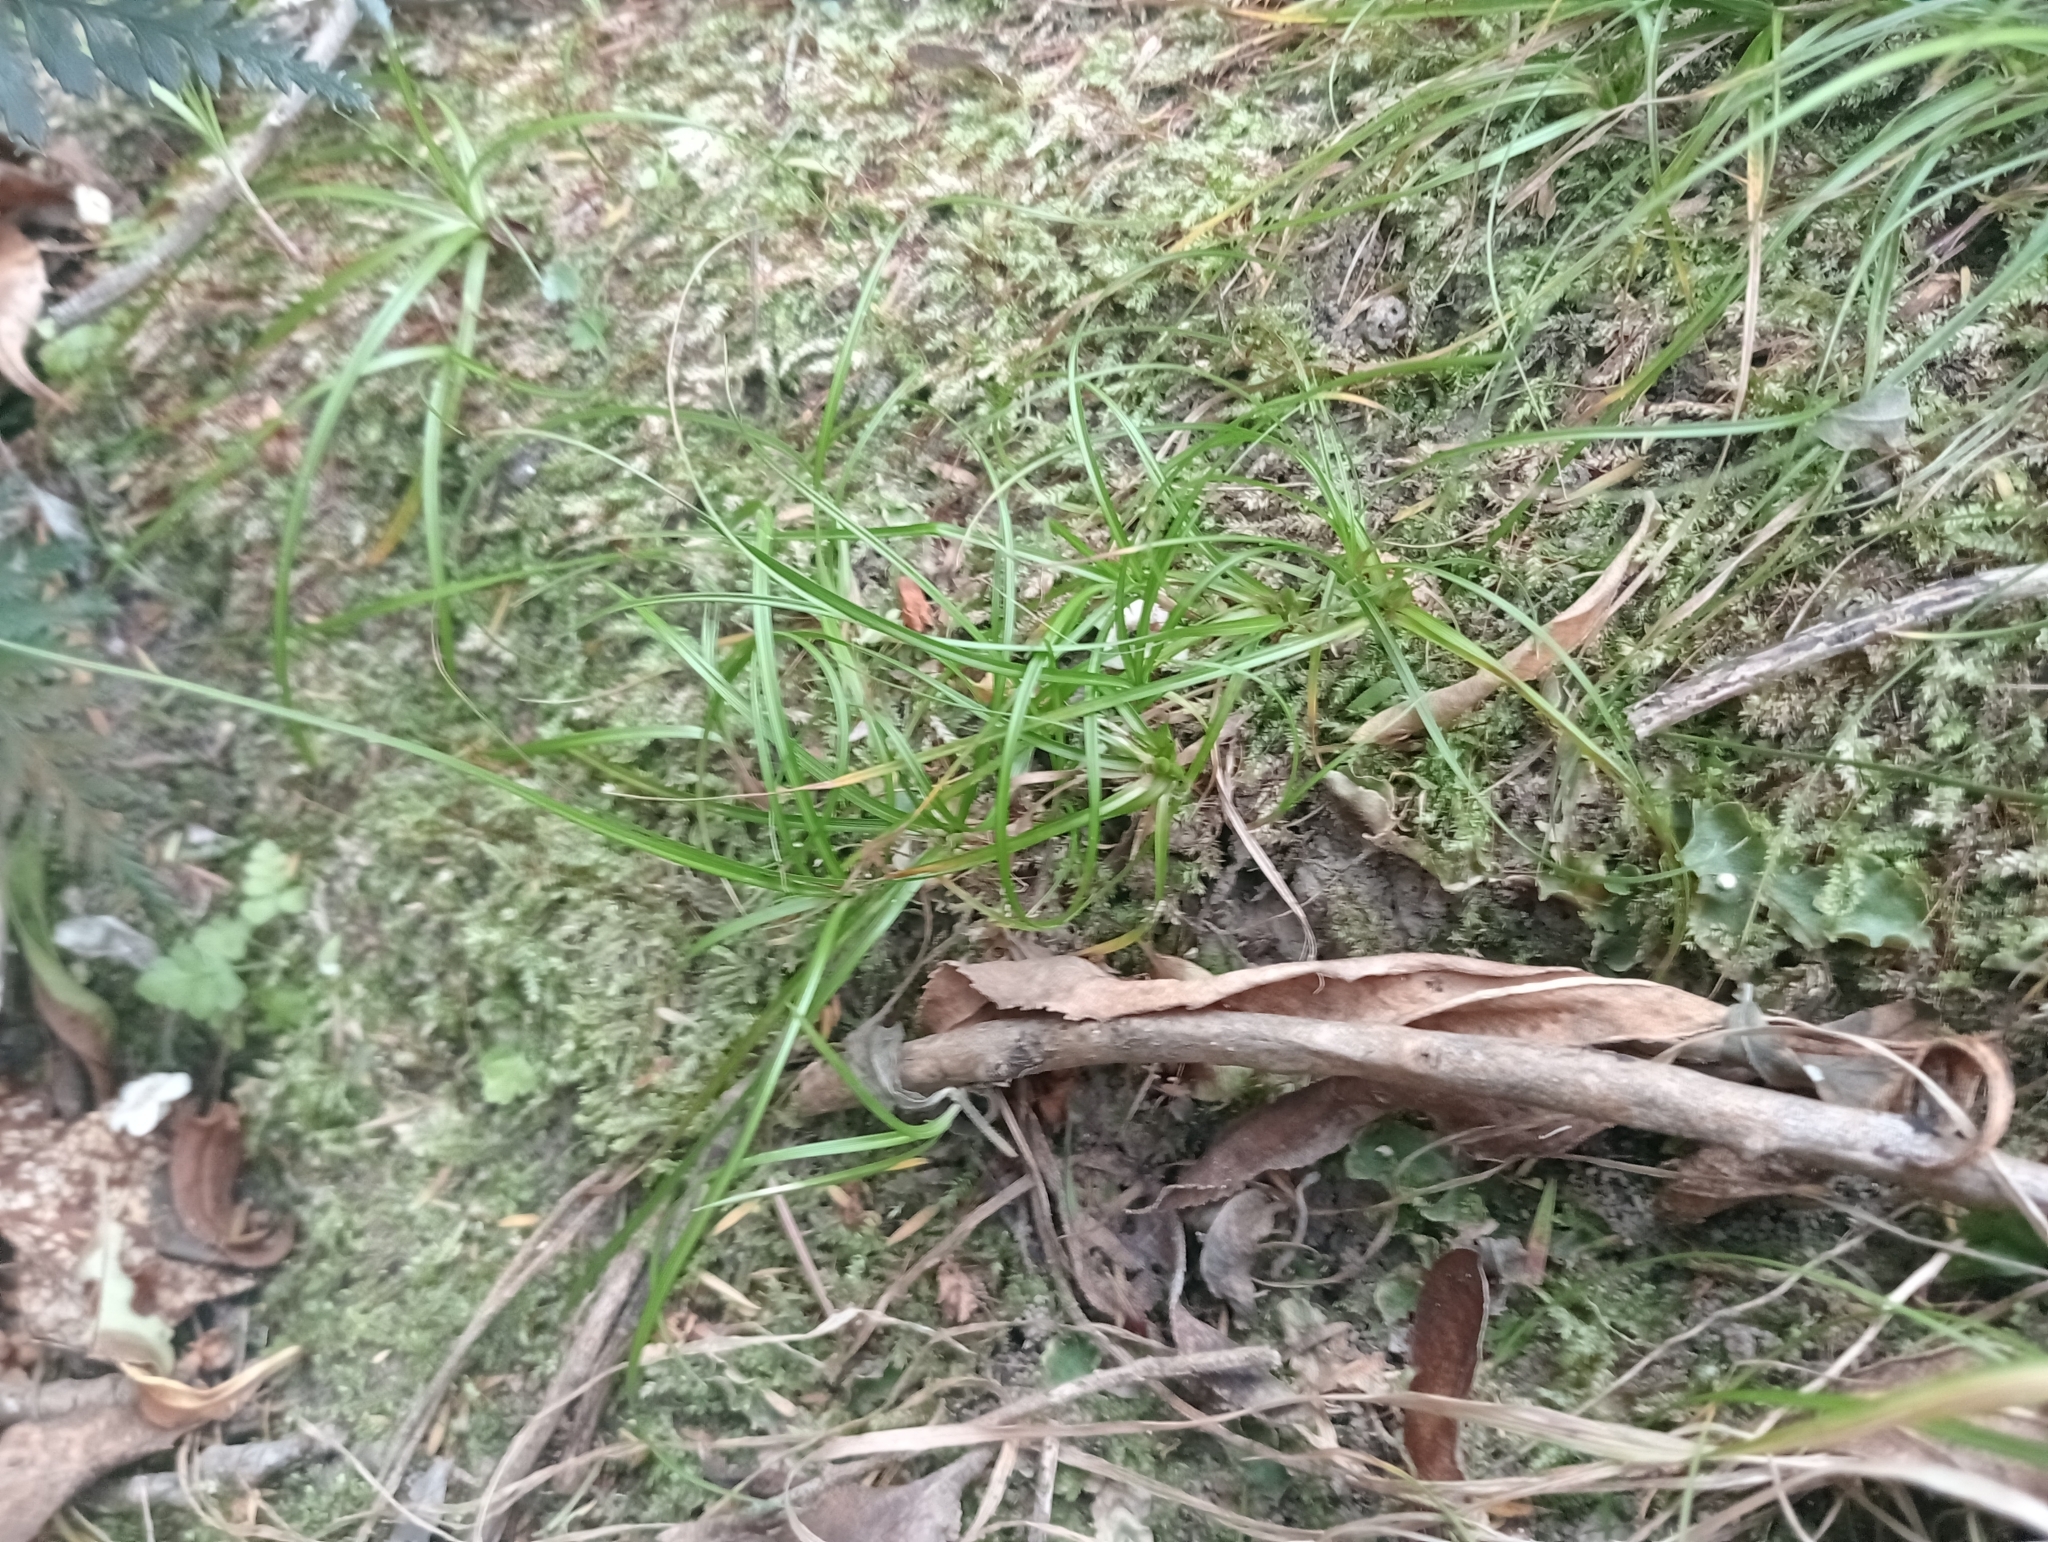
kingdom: Plantae
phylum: Tracheophyta
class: Liliopsida
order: Poales
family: Cyperaceae
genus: Carex
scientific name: Carex breviculmis
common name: Asian shortstem sedge
